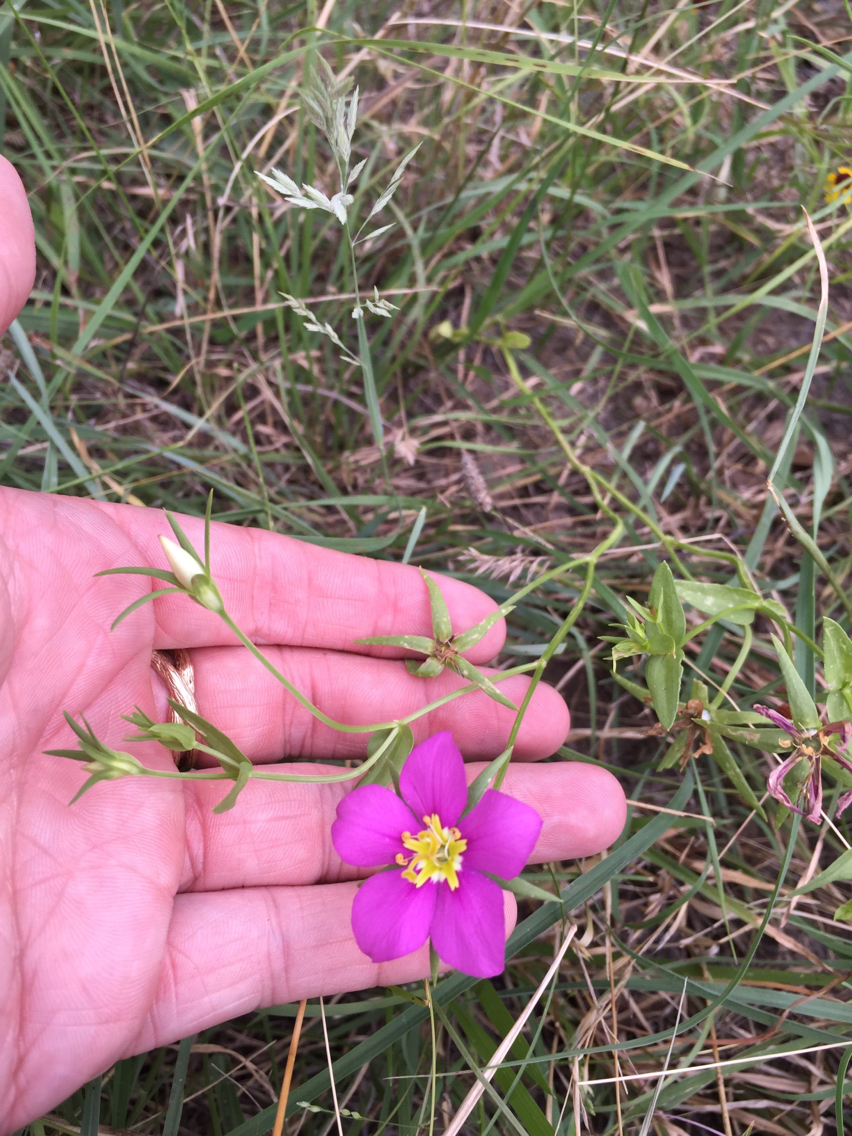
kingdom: Plantae
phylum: Tracheophyta
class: Magnoliopsida
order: Gentianales
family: Gentianaceae
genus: Sabatia
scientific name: Sabatia campestris
